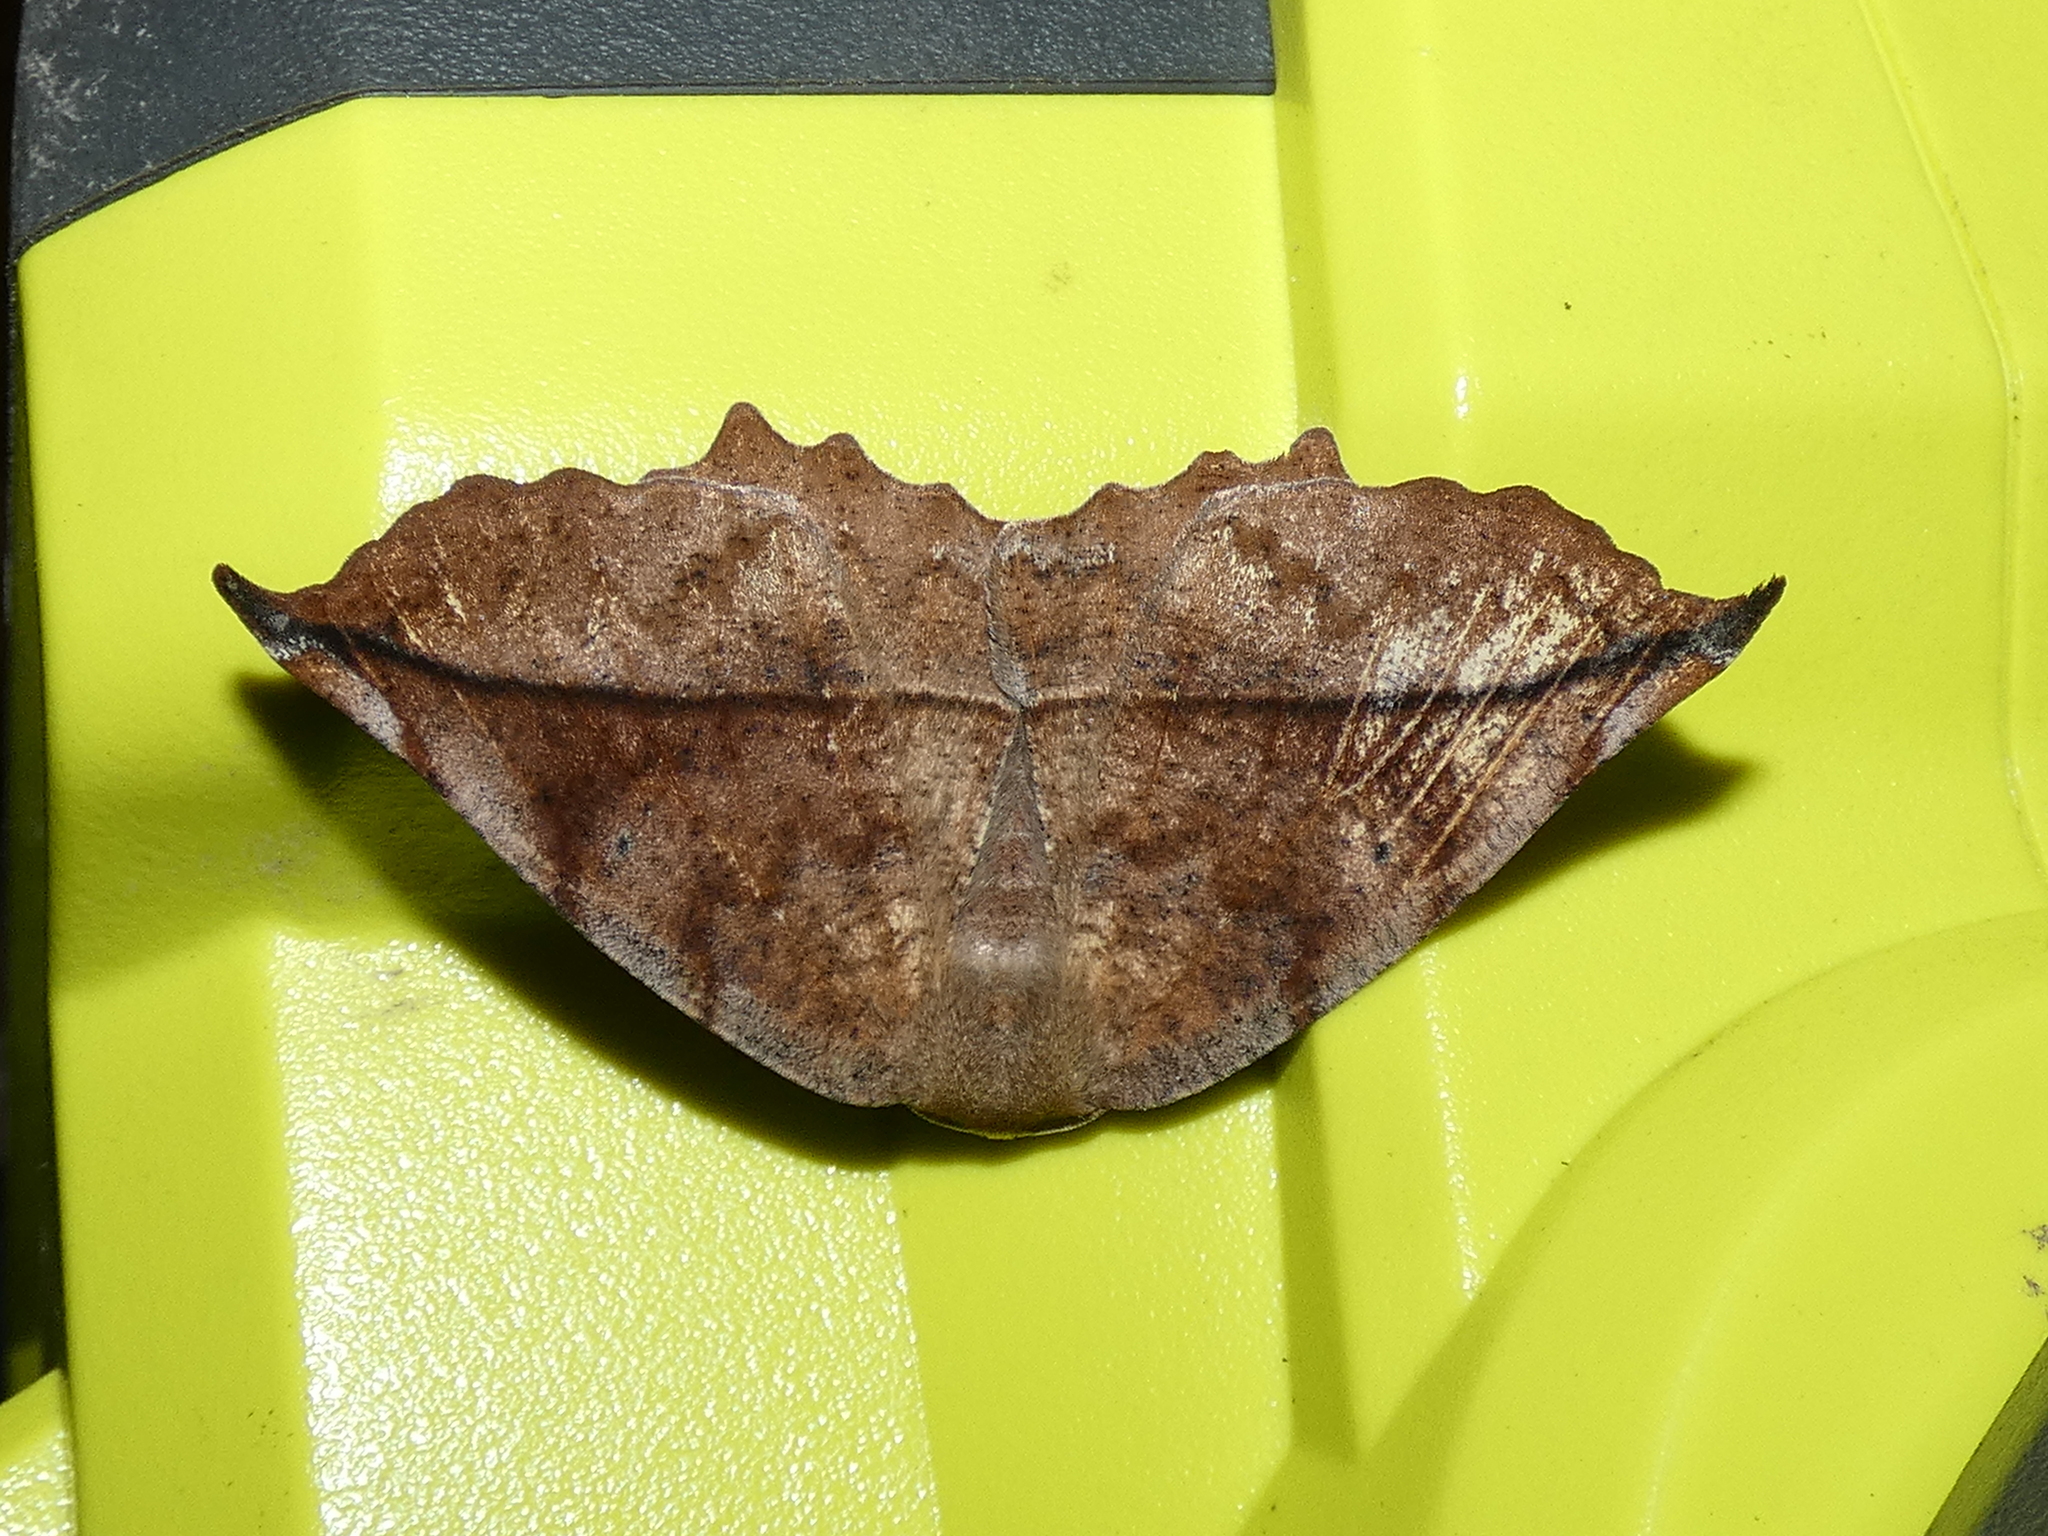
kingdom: Animalia
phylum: Arthropoda
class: Insecta
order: Lepidoptera
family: Geometridae
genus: Eutrapela
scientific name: Eutrapela clemataria
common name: Curved-toothed geometer
